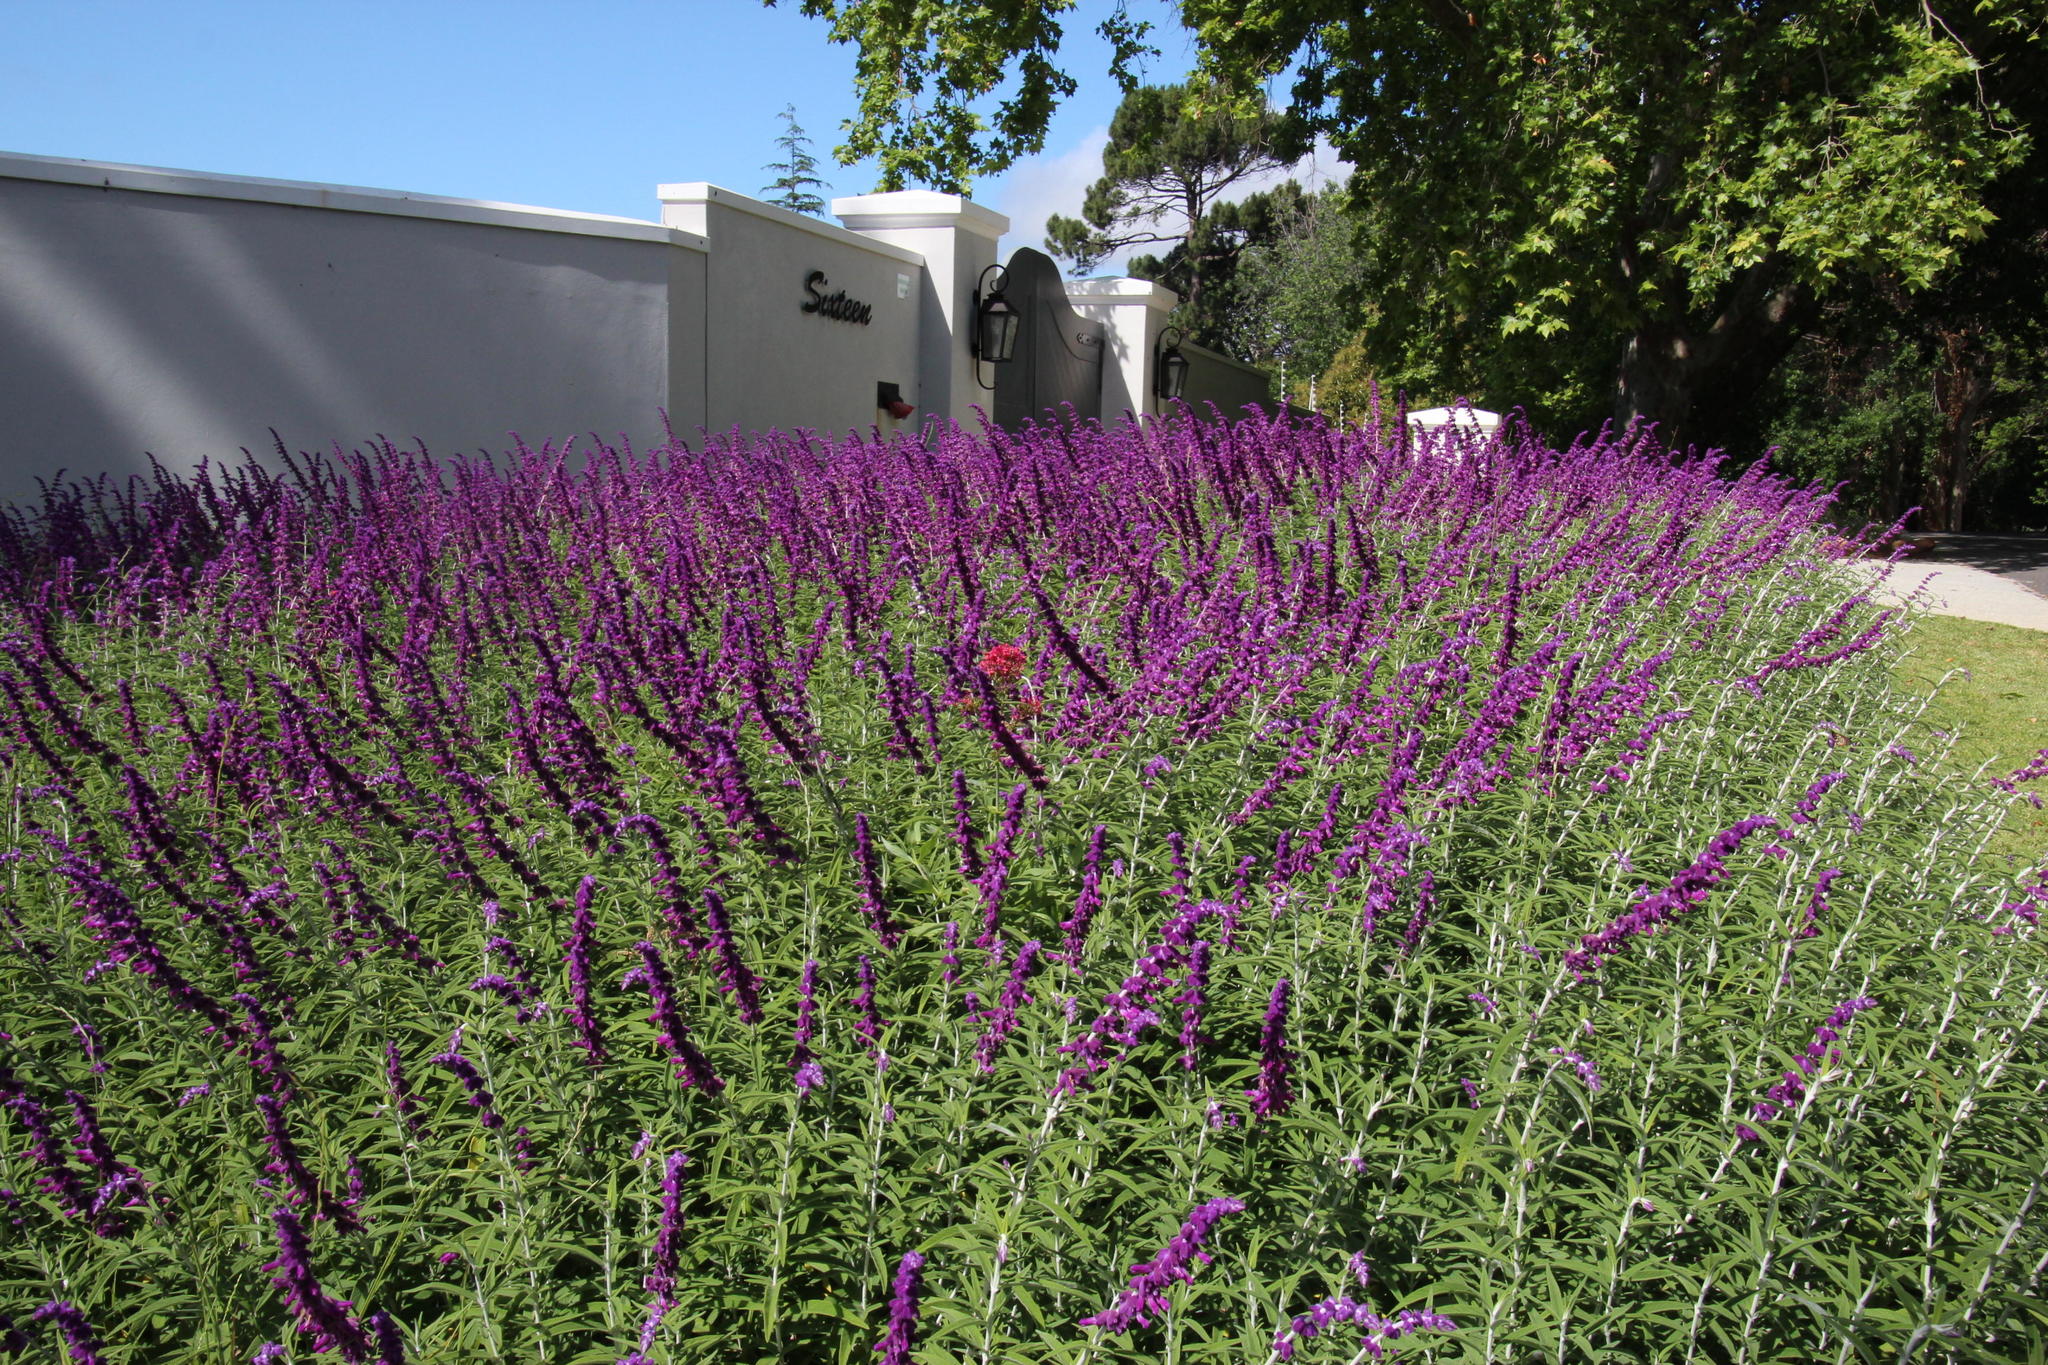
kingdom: Plantae
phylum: Tracheophyta
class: Magnoliopsida
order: Dipsacales
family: Caprifoliaceae
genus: Centranthus
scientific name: Centranthus ruber
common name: Red valerian
